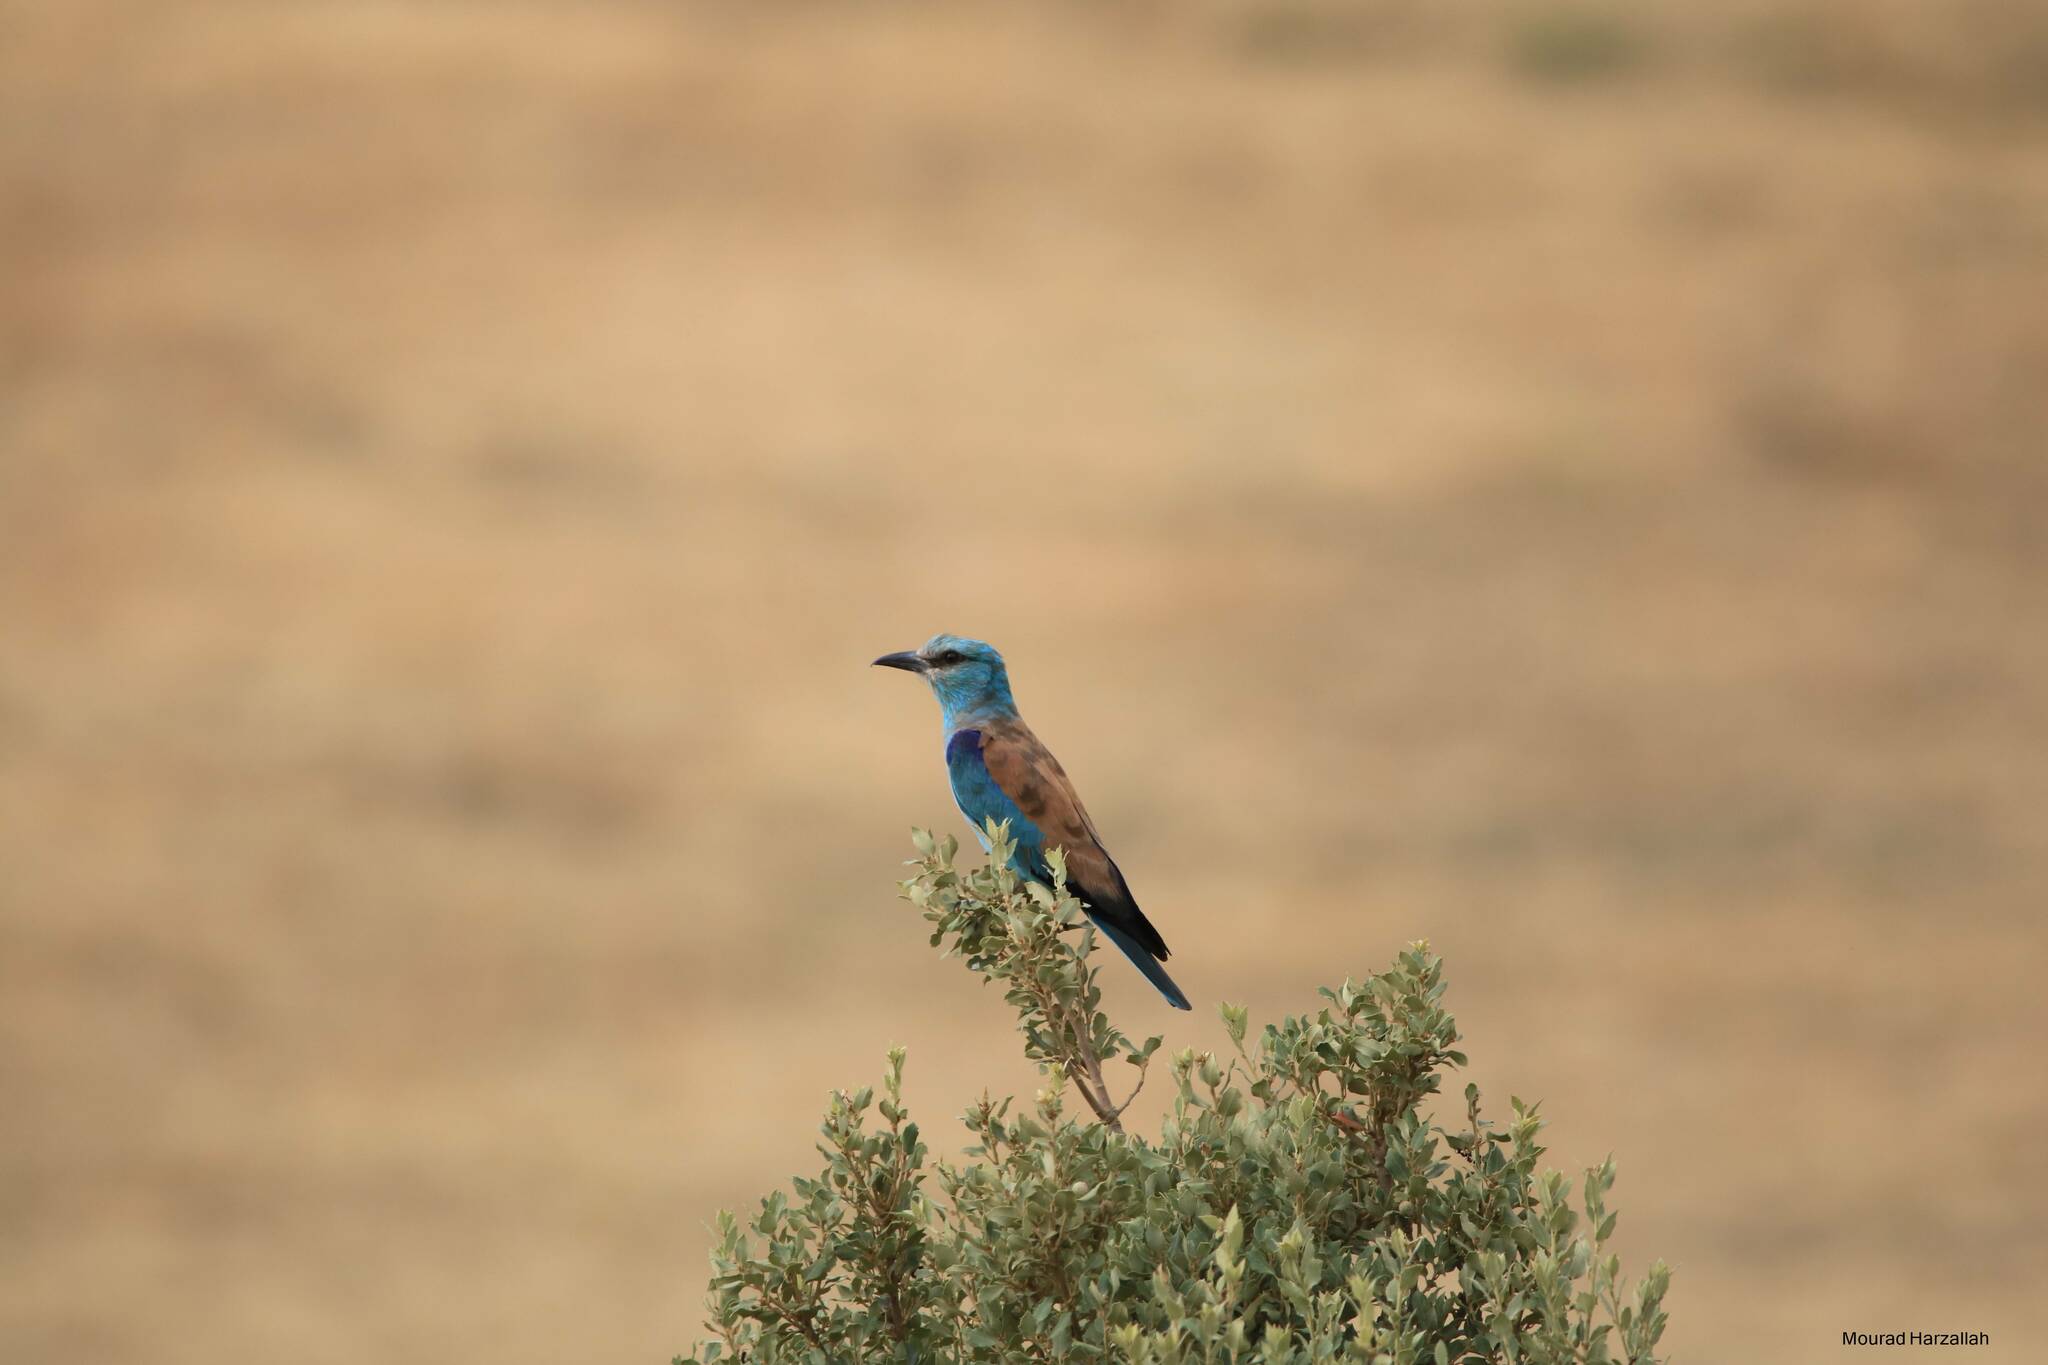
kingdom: Animalia
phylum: Chordata
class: Aves
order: Coraciiformes
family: Coraciidae
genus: Coracias
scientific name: Coracias garrulus
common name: European roller
